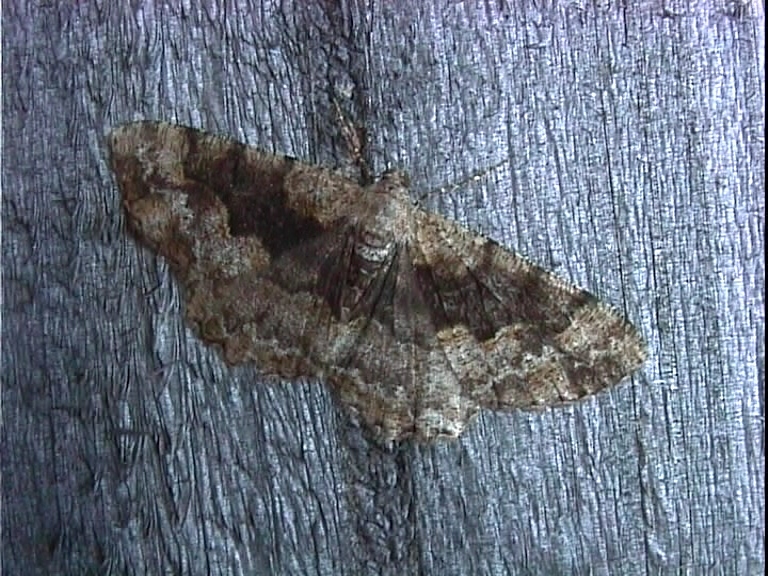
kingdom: Animalia
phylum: Arthropoda
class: Insecta
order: Lepidoptera
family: Geometridae
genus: Alcis
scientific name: Alcis repandata
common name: Mottled beauty
